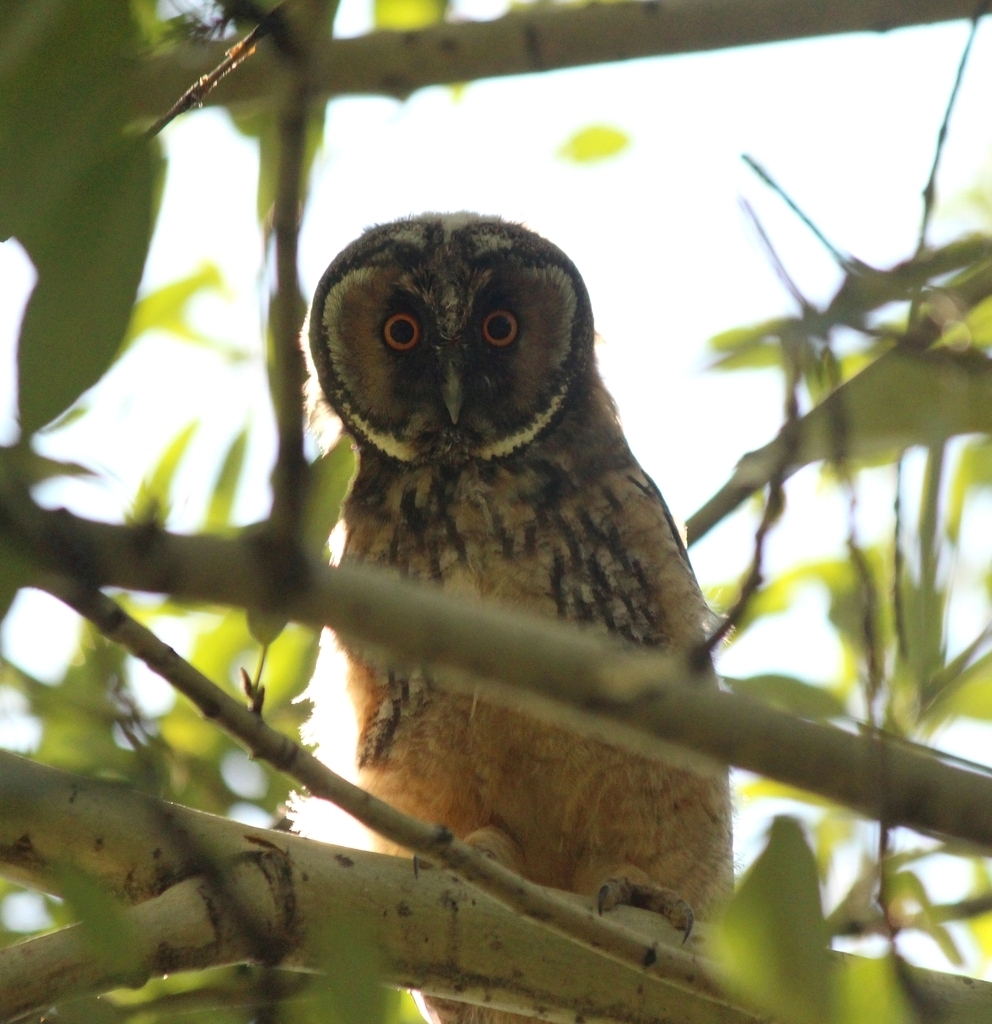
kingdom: Animalia
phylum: Chordata
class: Aves
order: Strigiformes
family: Strigidae
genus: Asio
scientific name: Asio otus
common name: Long-eared owl
